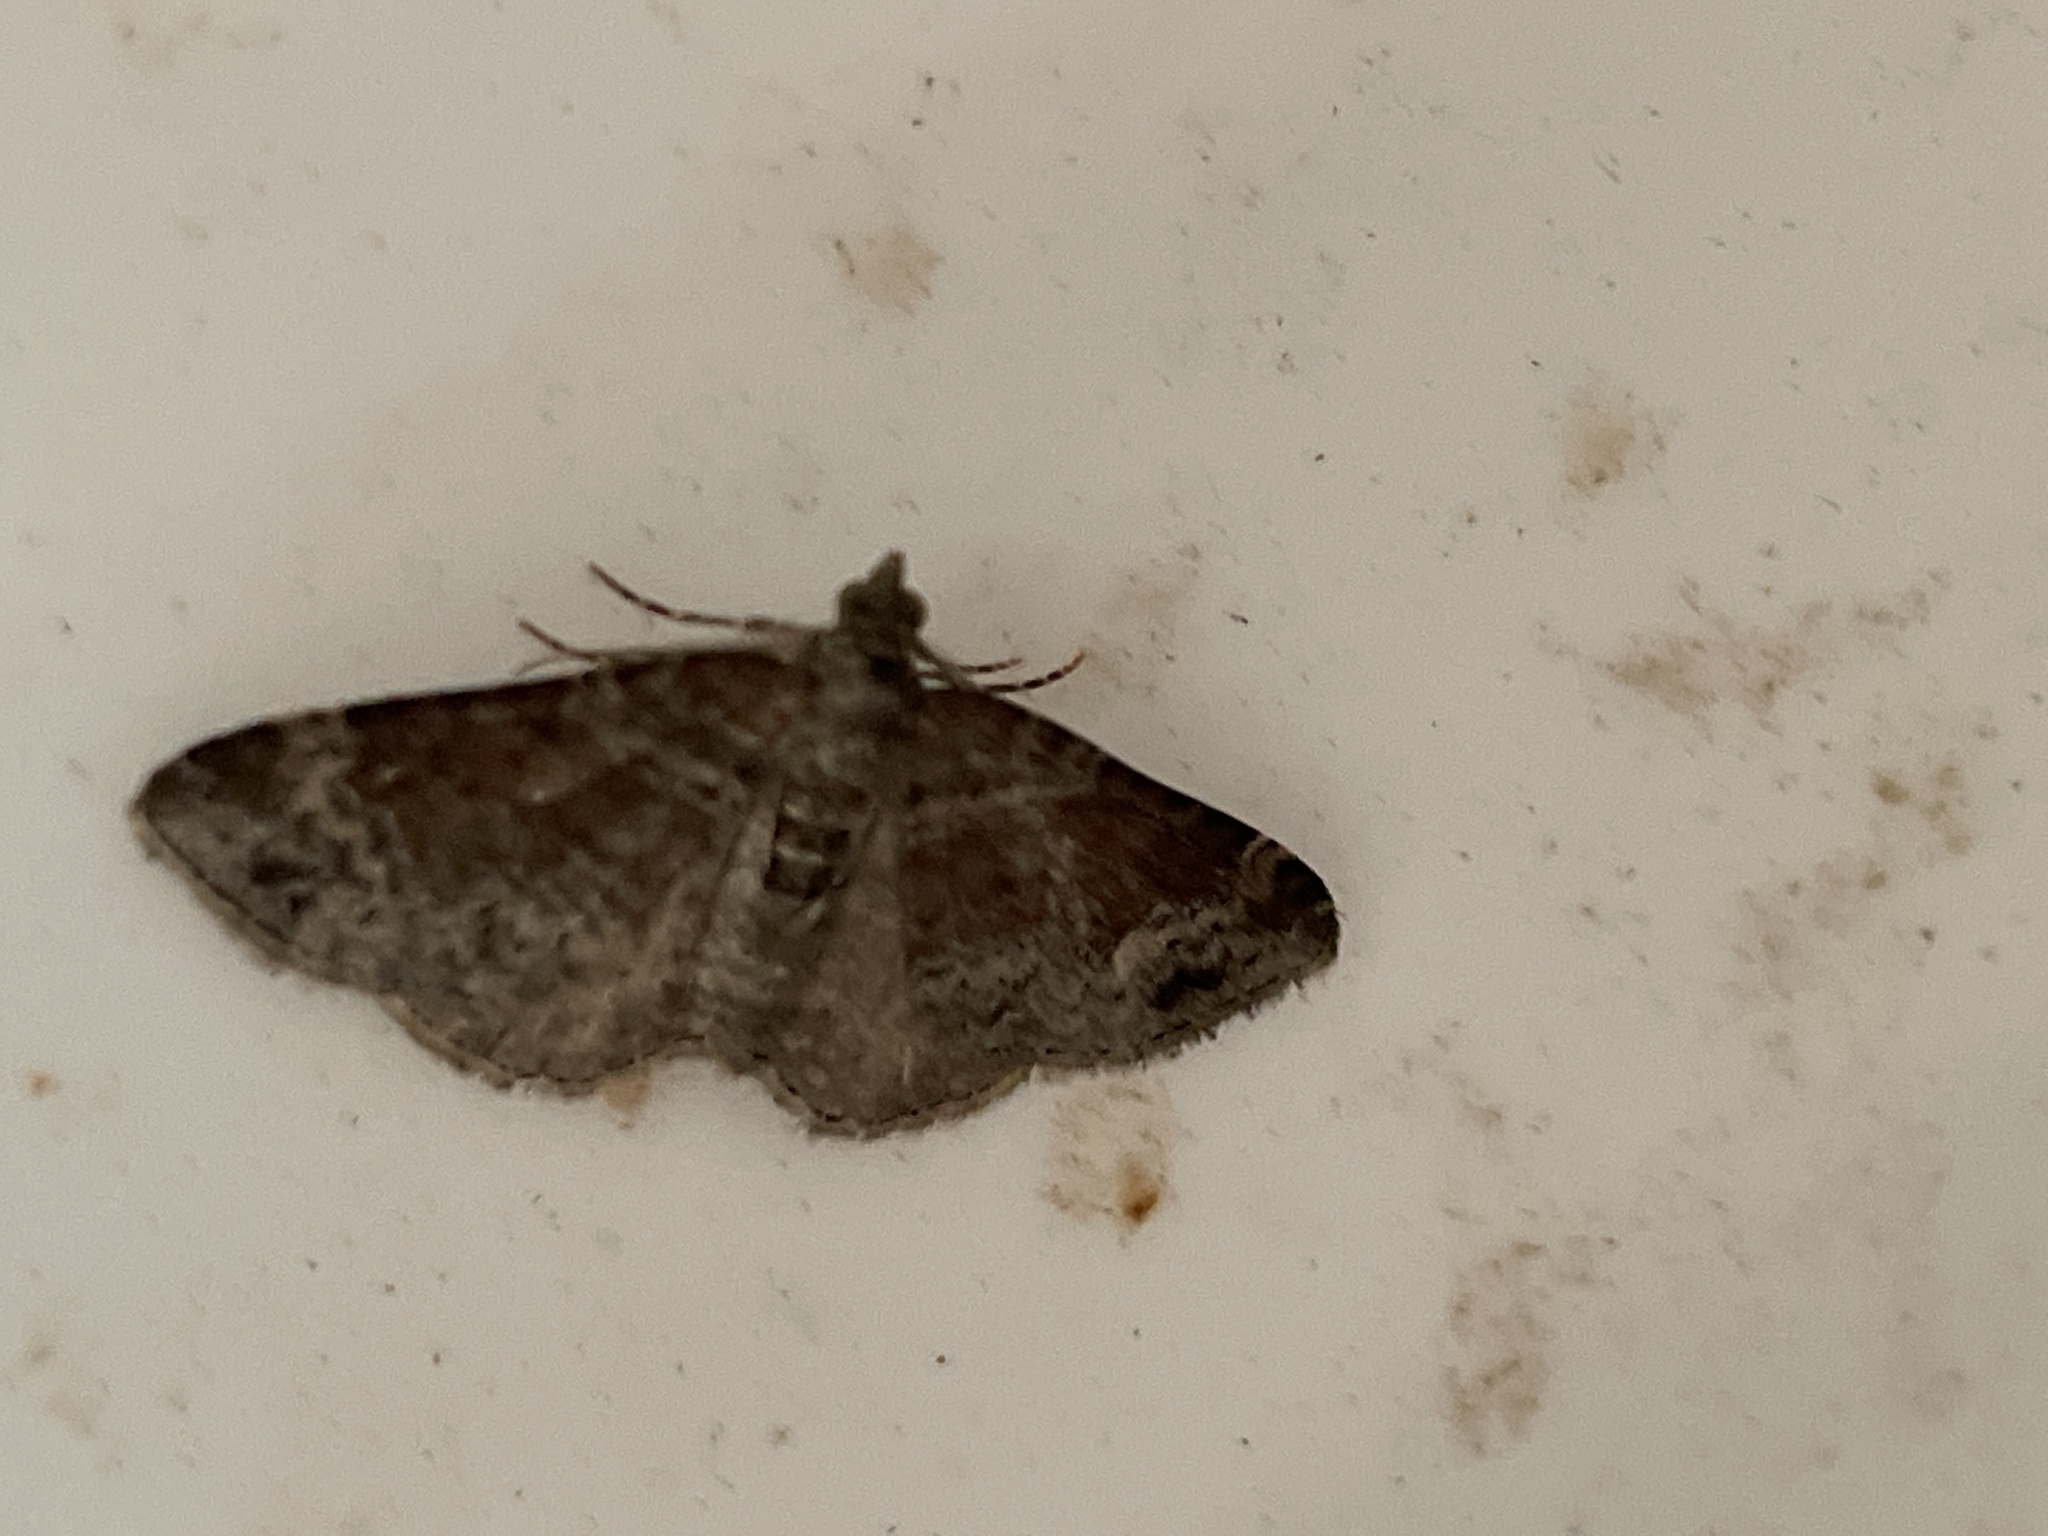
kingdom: Animalia
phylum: Arthropoda
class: Insecta
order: Lepidoptera
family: Geometridae
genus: Xanthorhoe
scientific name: Xanthorhoe ferrugata
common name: Dark-barred twin-spot carpet
